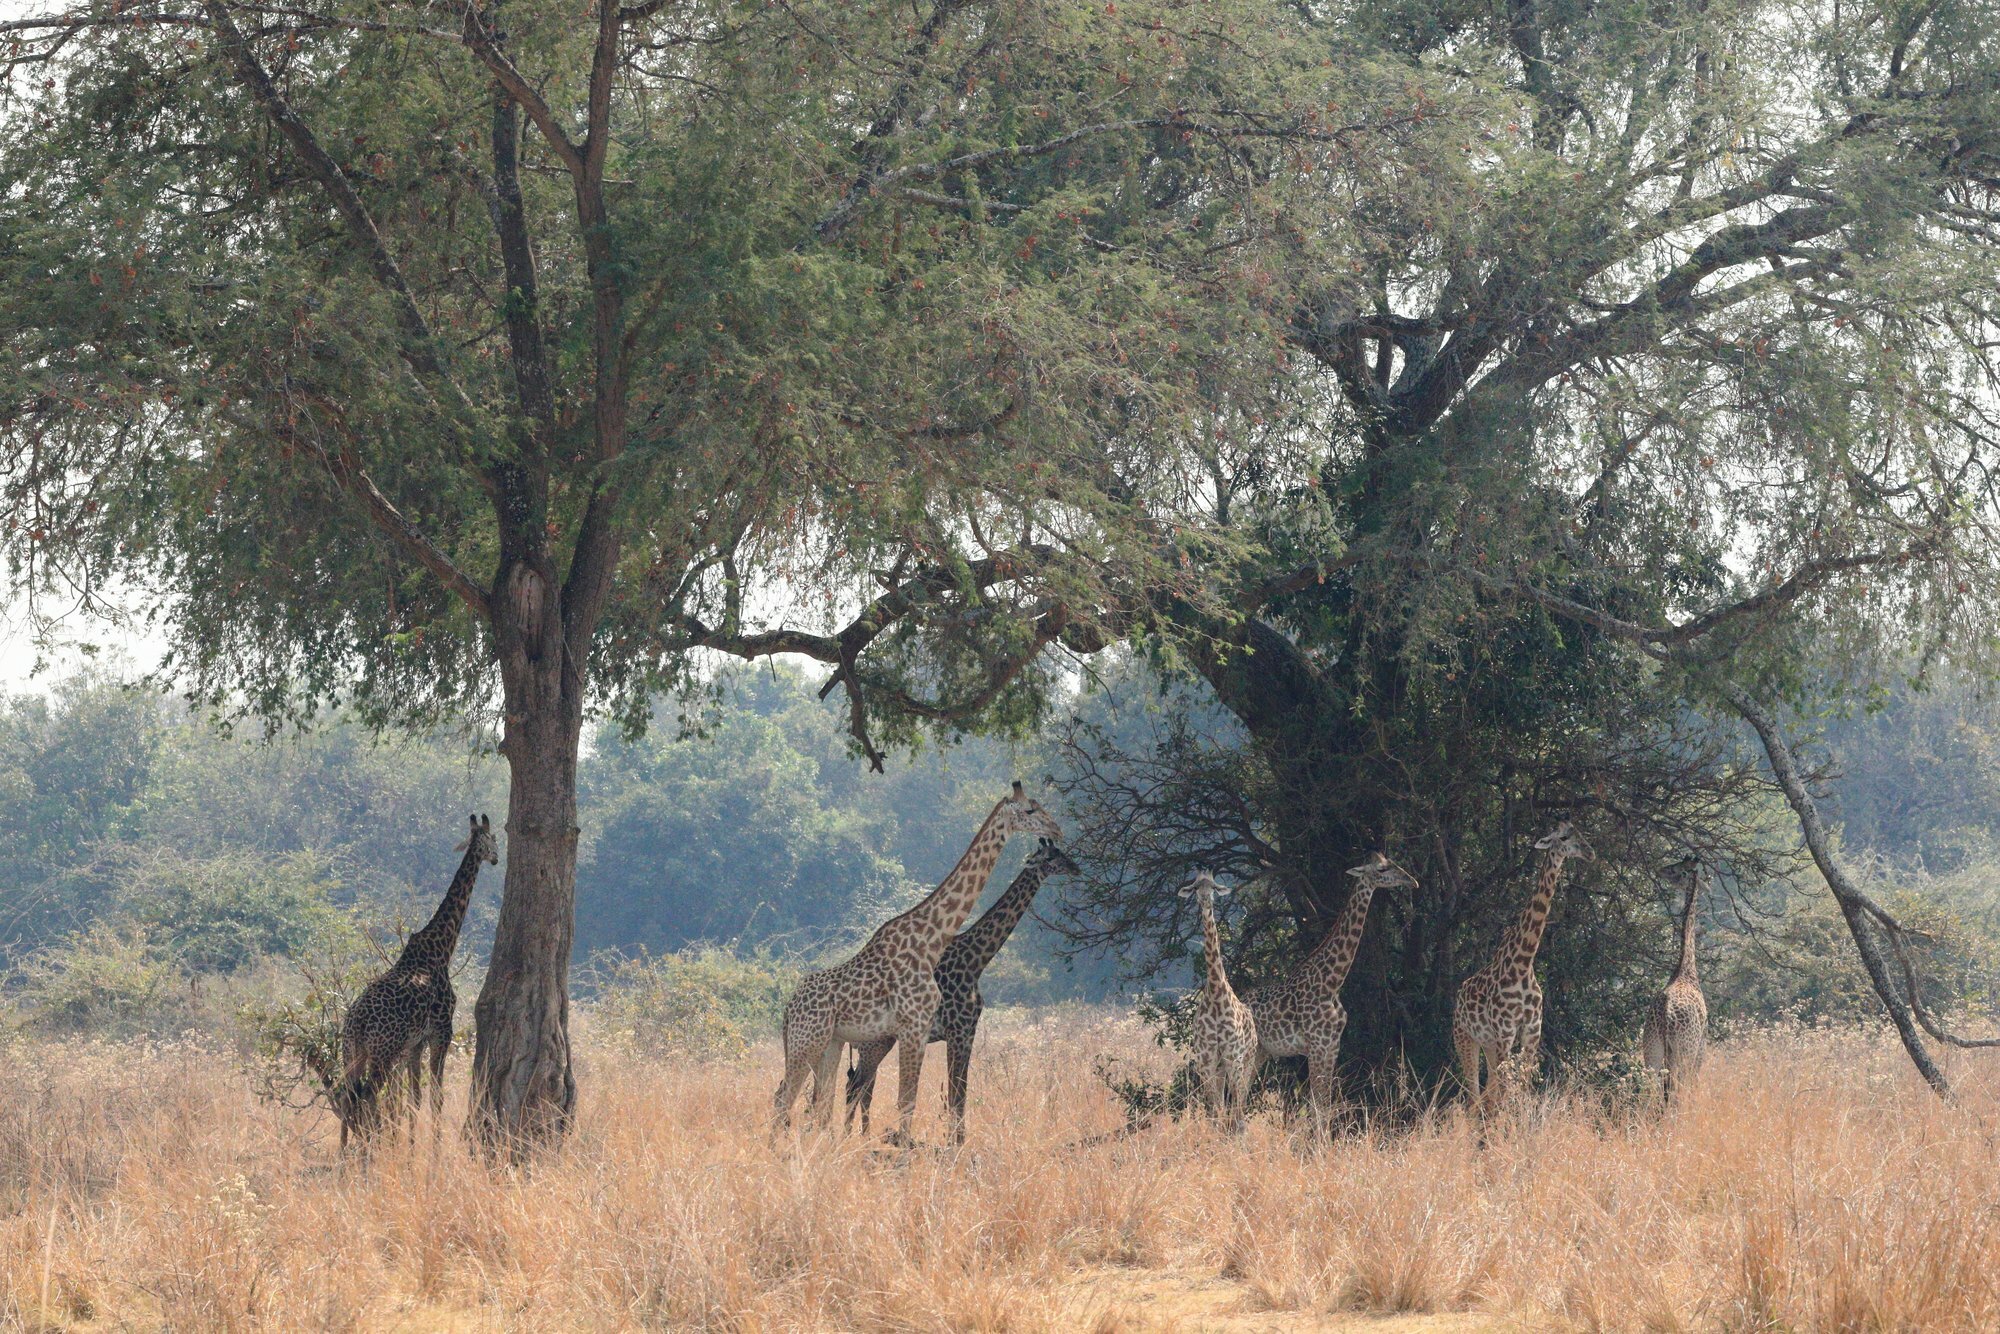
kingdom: Animalia
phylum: Chordata
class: Mammalia
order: Artiodactyla
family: Giraffidae
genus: Giraffa
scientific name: Giraffa tippelskirchi
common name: Masai giraffe
